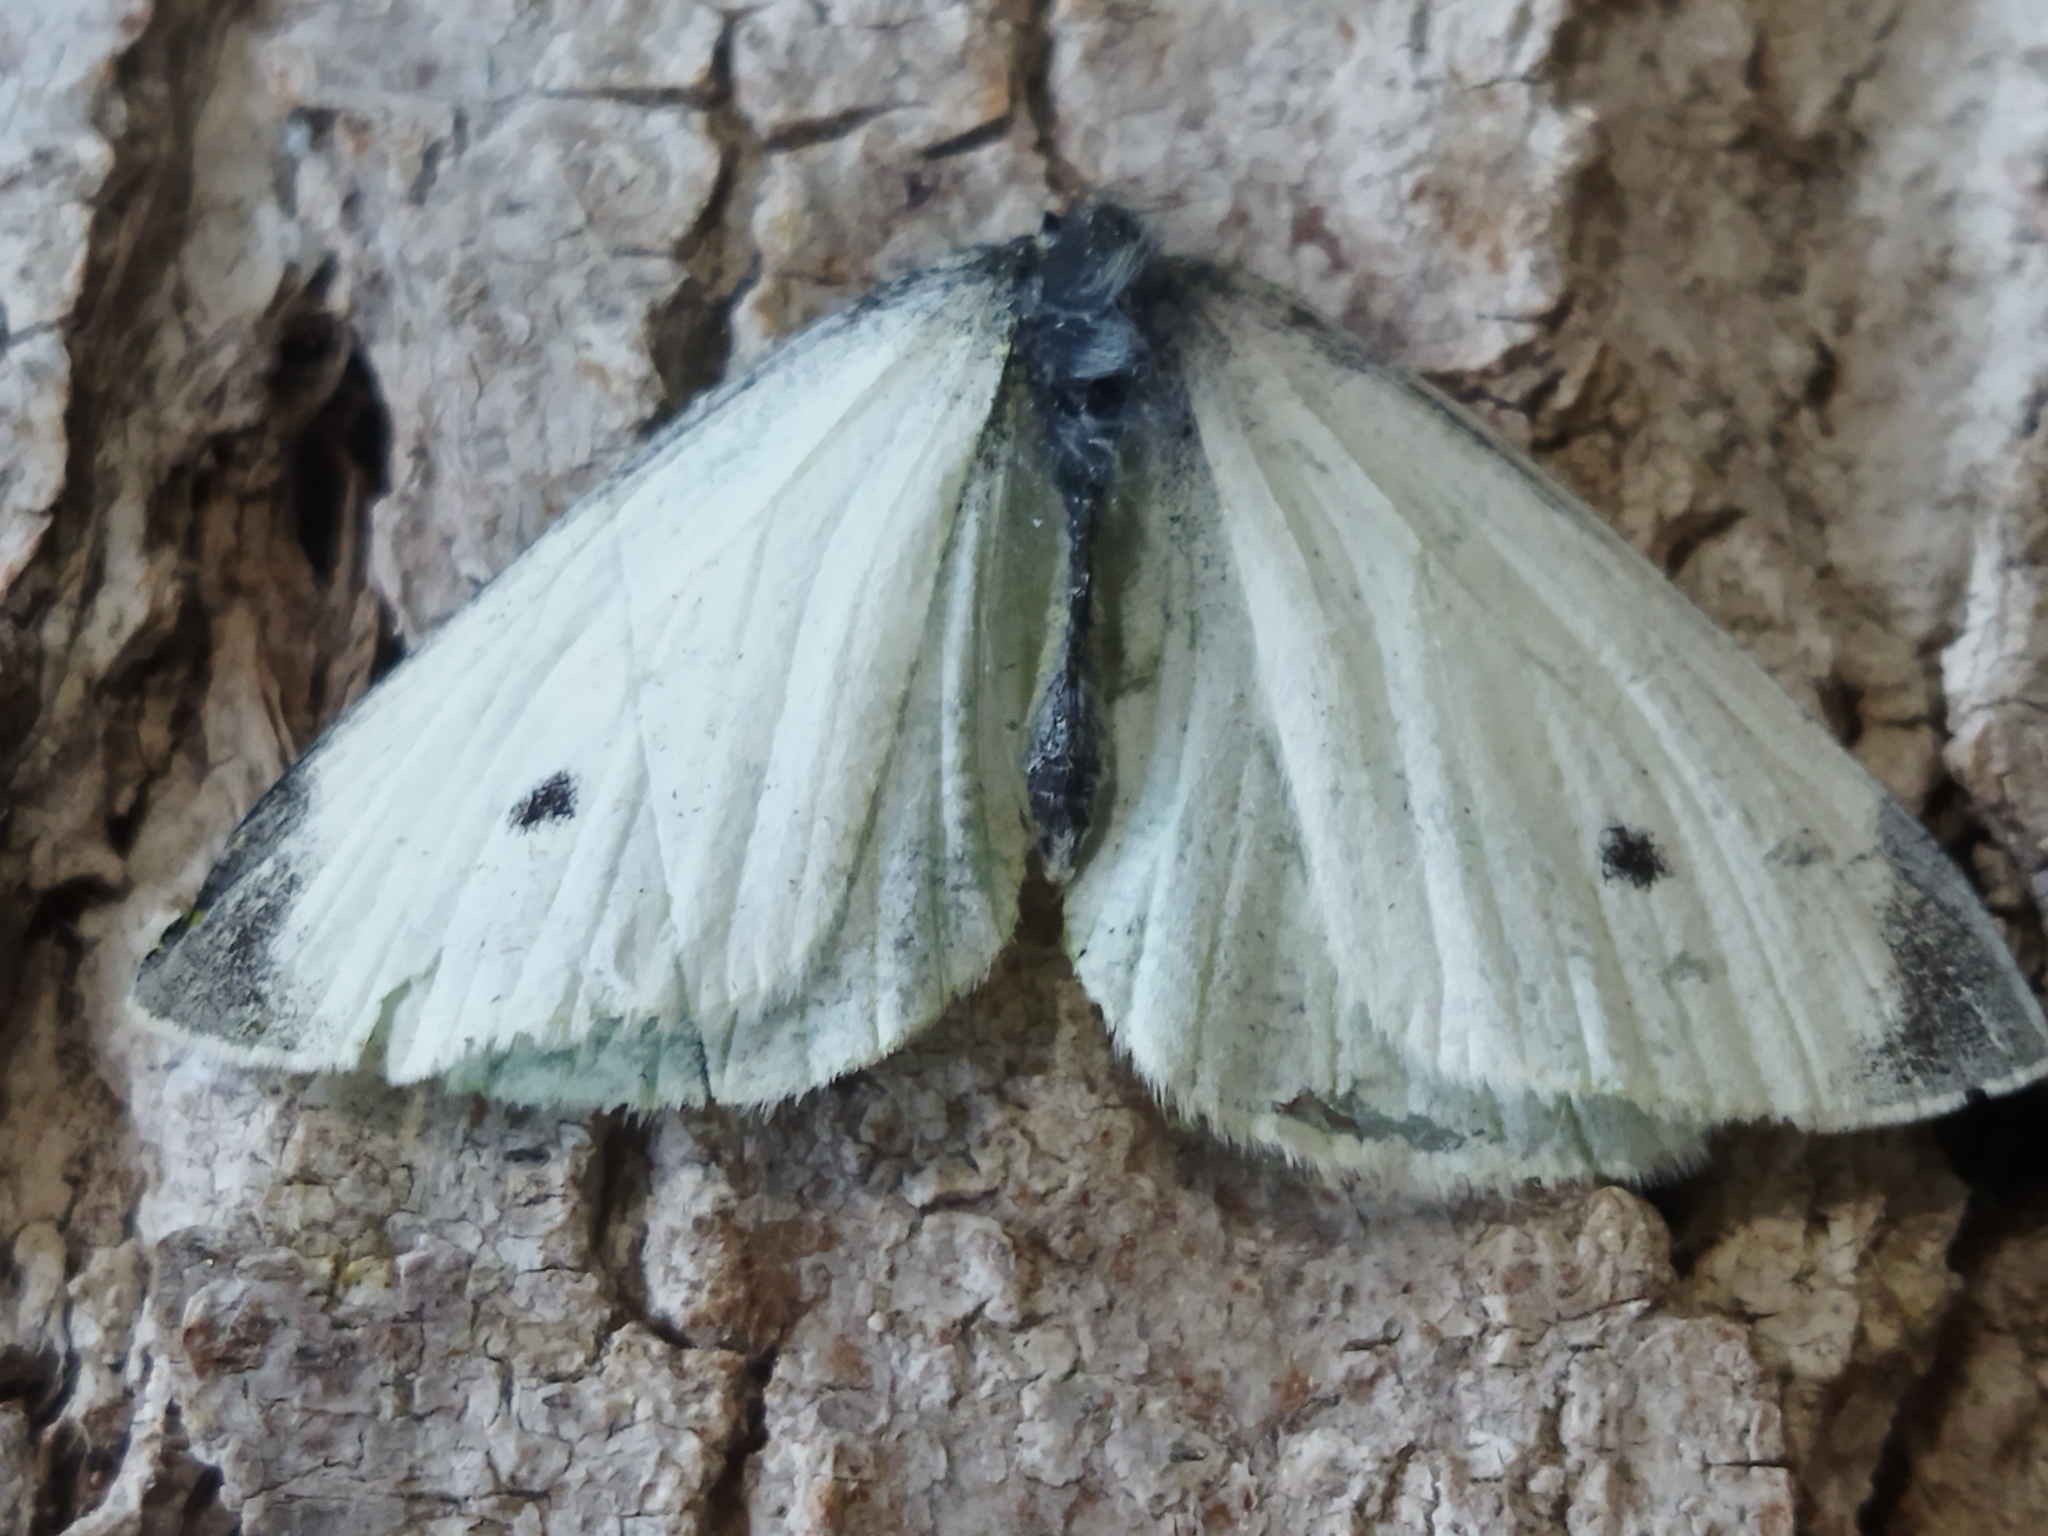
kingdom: Animalia
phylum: Arthropoda
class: Insecta
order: Lepidoptera
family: Pieridae
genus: Pieris
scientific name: Pieris rapae
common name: Small white
